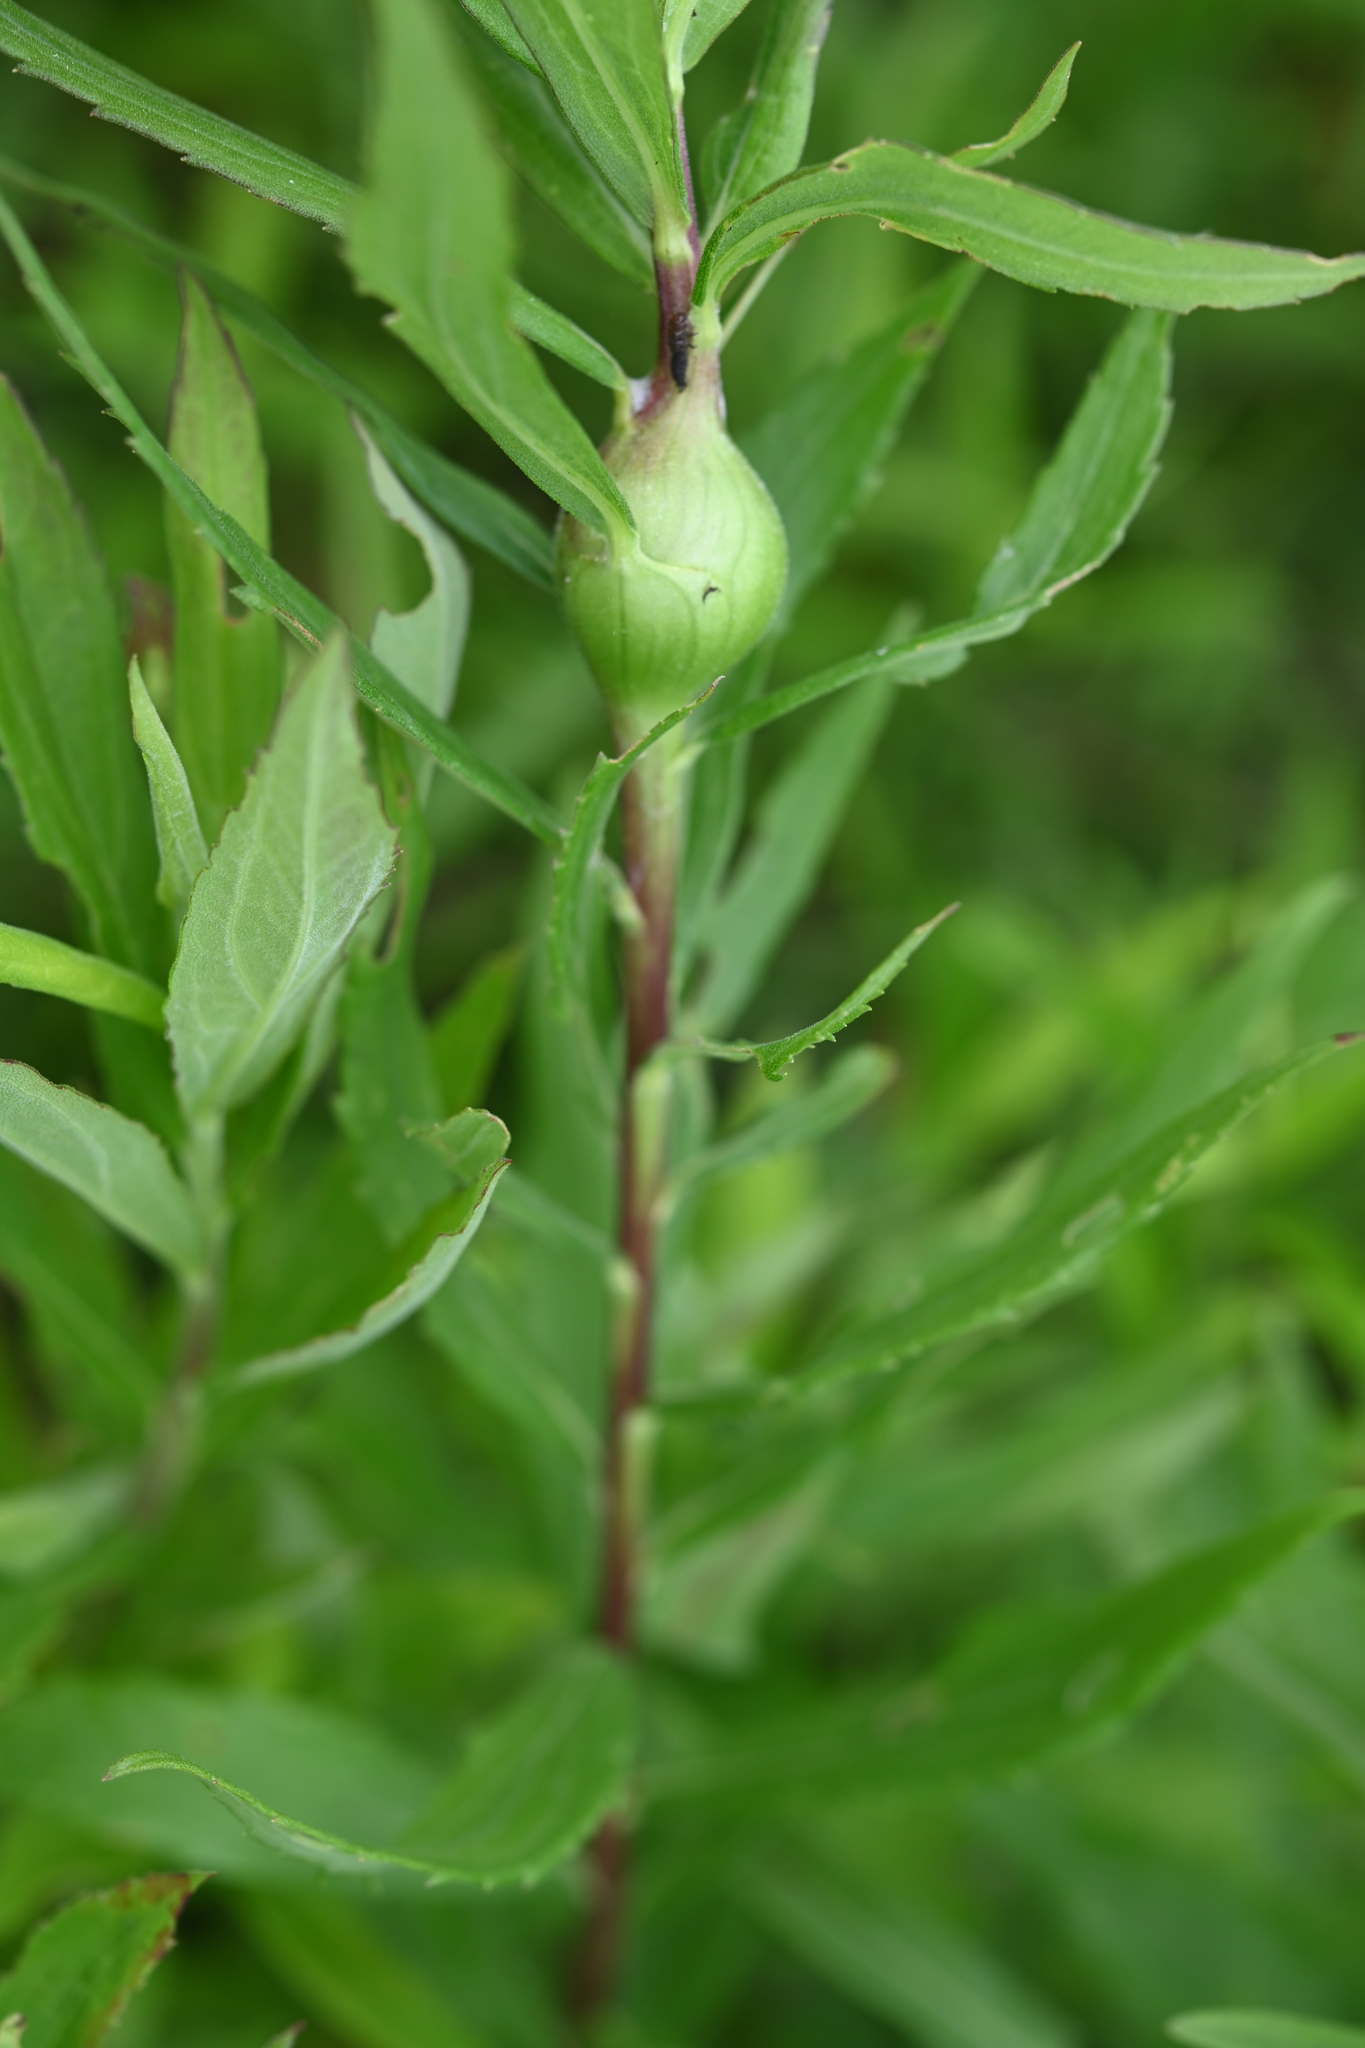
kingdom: Animalia
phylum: Arthropoda
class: Insecta
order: Diptera
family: Tephritidae
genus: Eurosta
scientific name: Eurosta solidaginis
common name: Goldenrod gall fly
